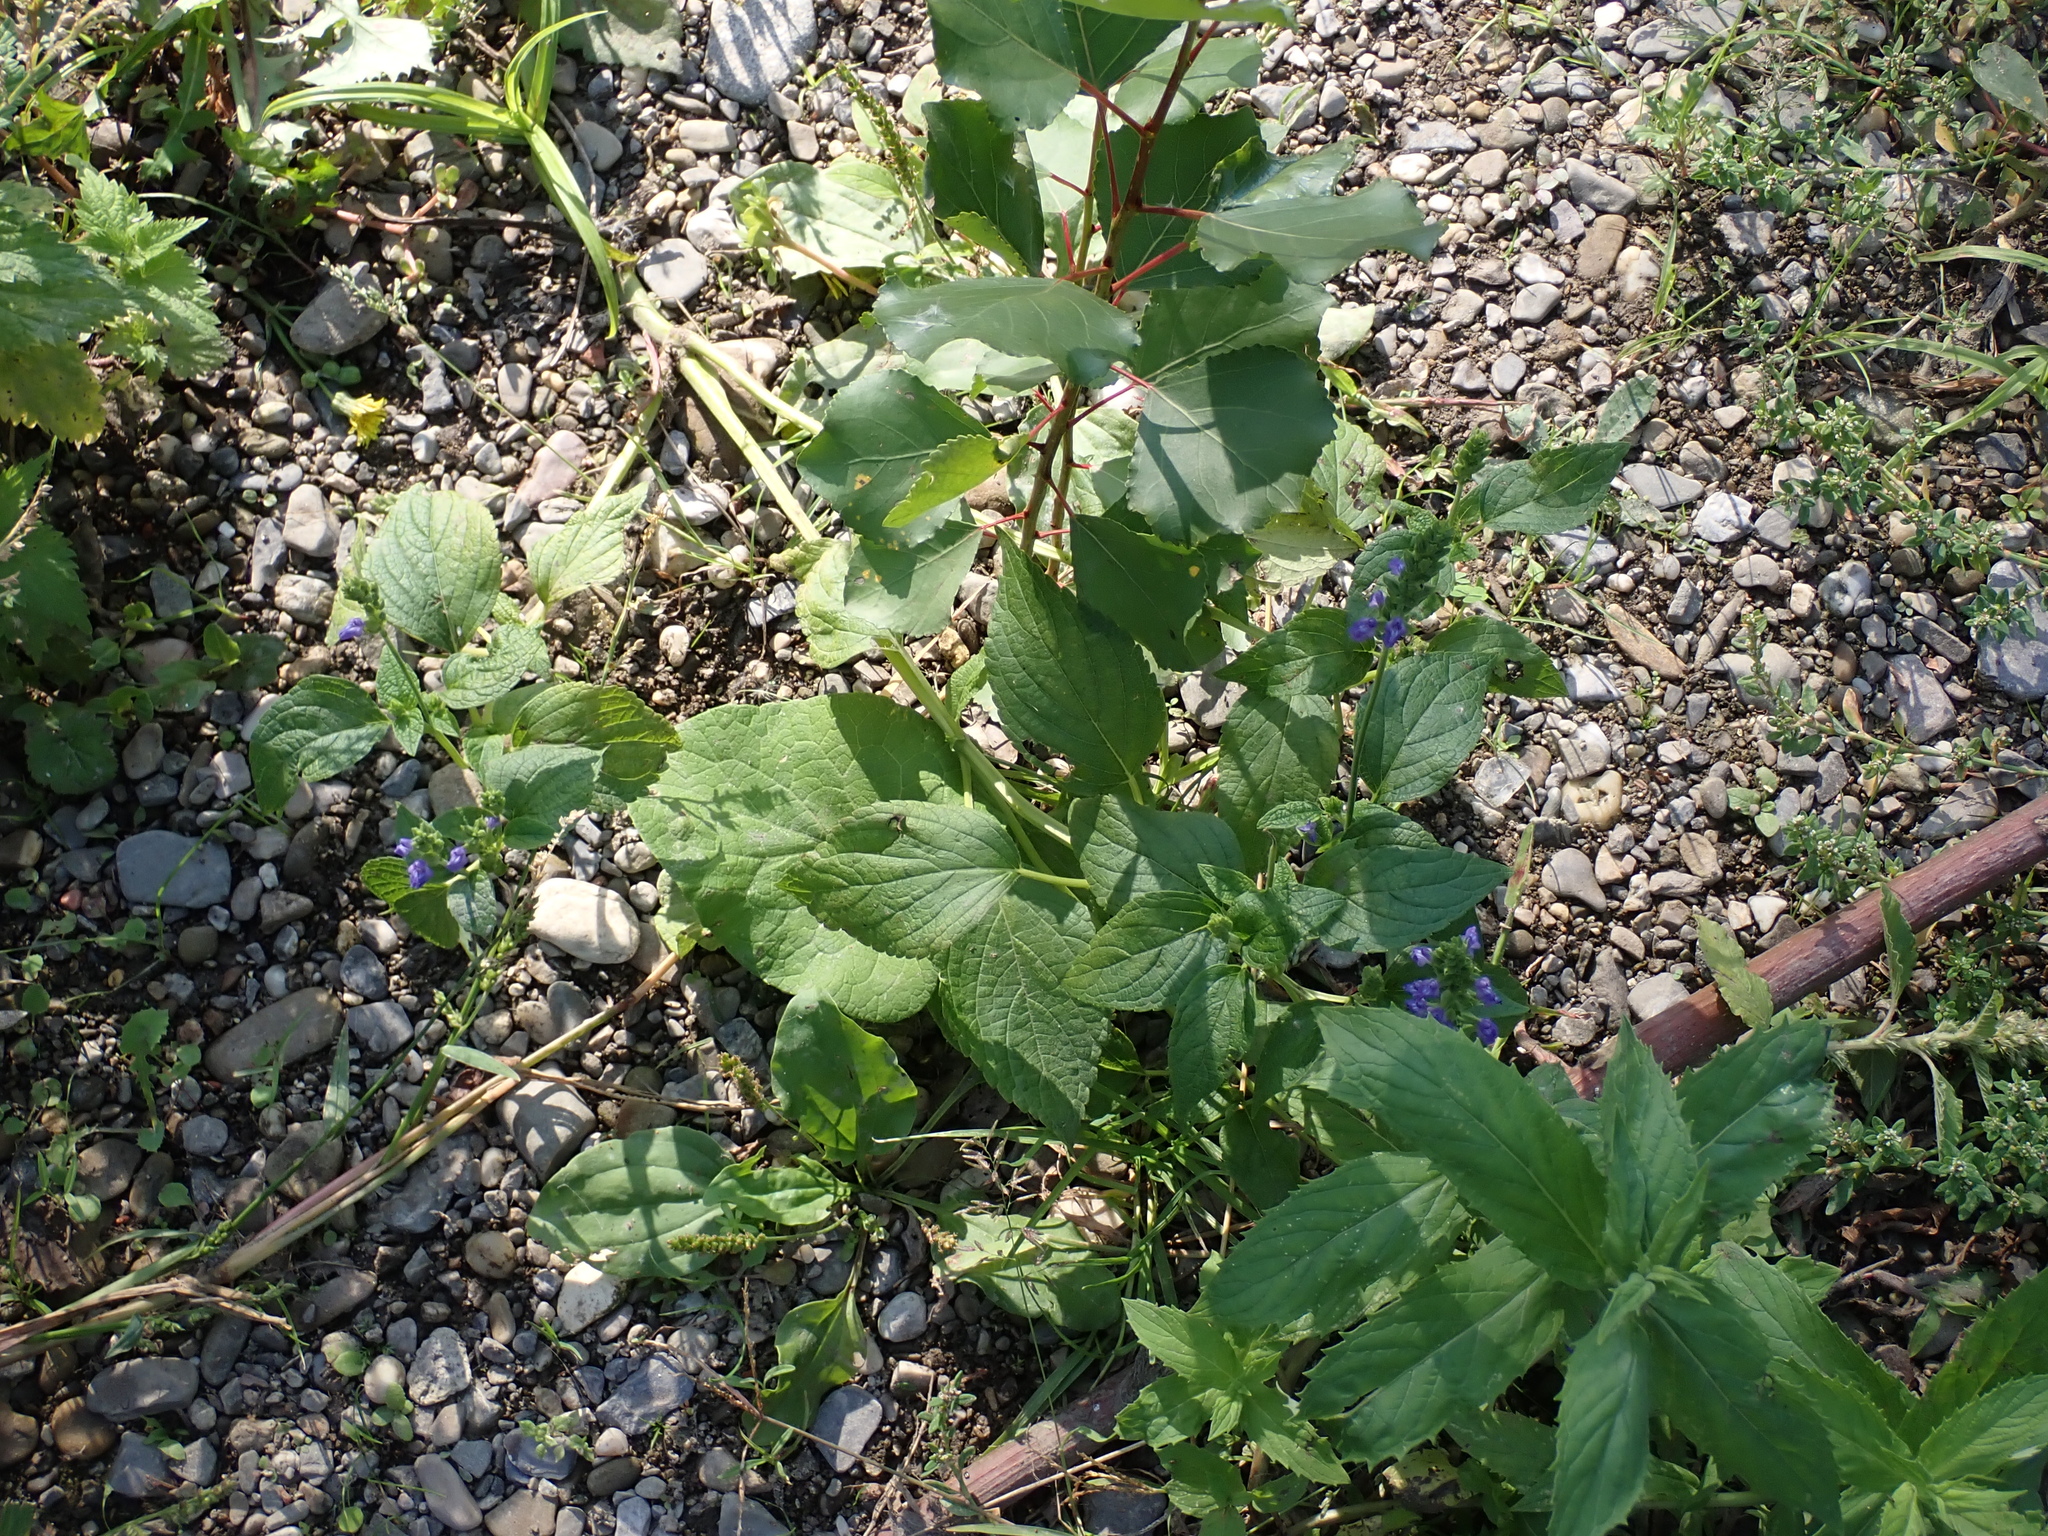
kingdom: Plantae
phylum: Tracheophyta
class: Magnoliopsida
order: Lamiales
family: Lamiaceae
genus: Salvia
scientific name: Salvia hispanica
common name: Chia
